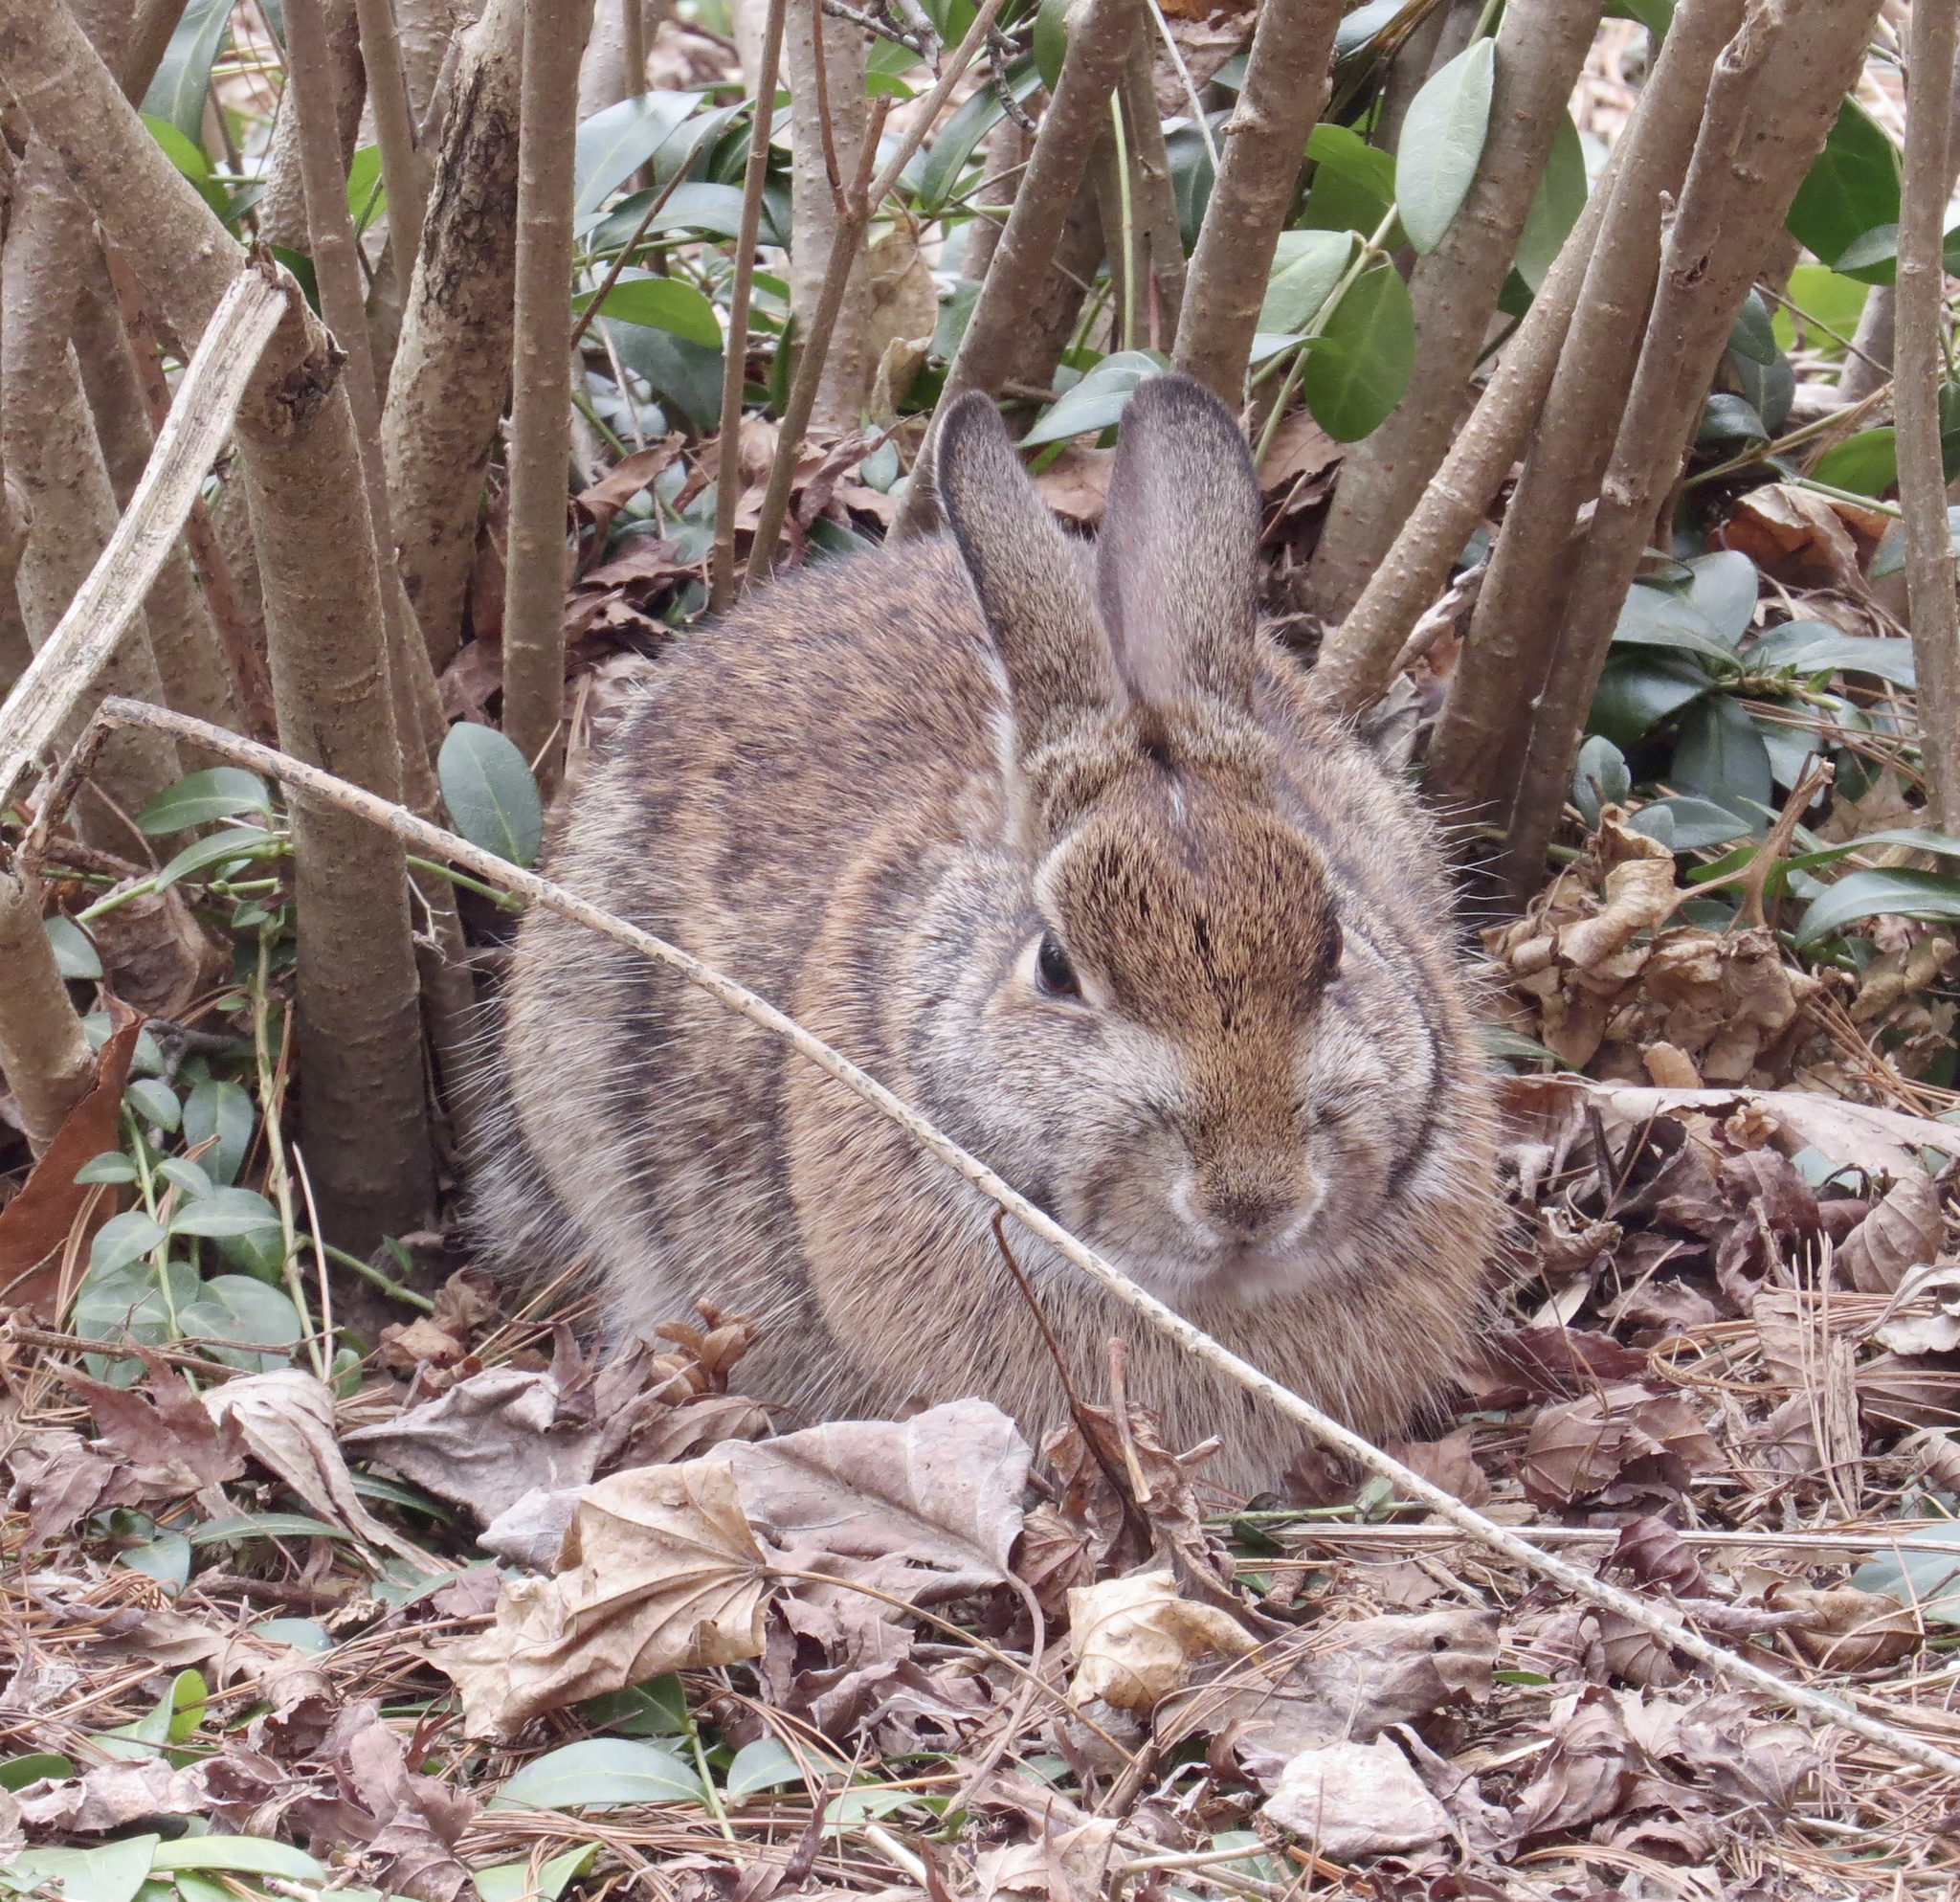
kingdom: Animalia
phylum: Chordata
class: Mammalia
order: Lagomorpha
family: Leporidae
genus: Sylvilagus
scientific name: Sylvilagus floridanus
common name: Eastern cottontail
